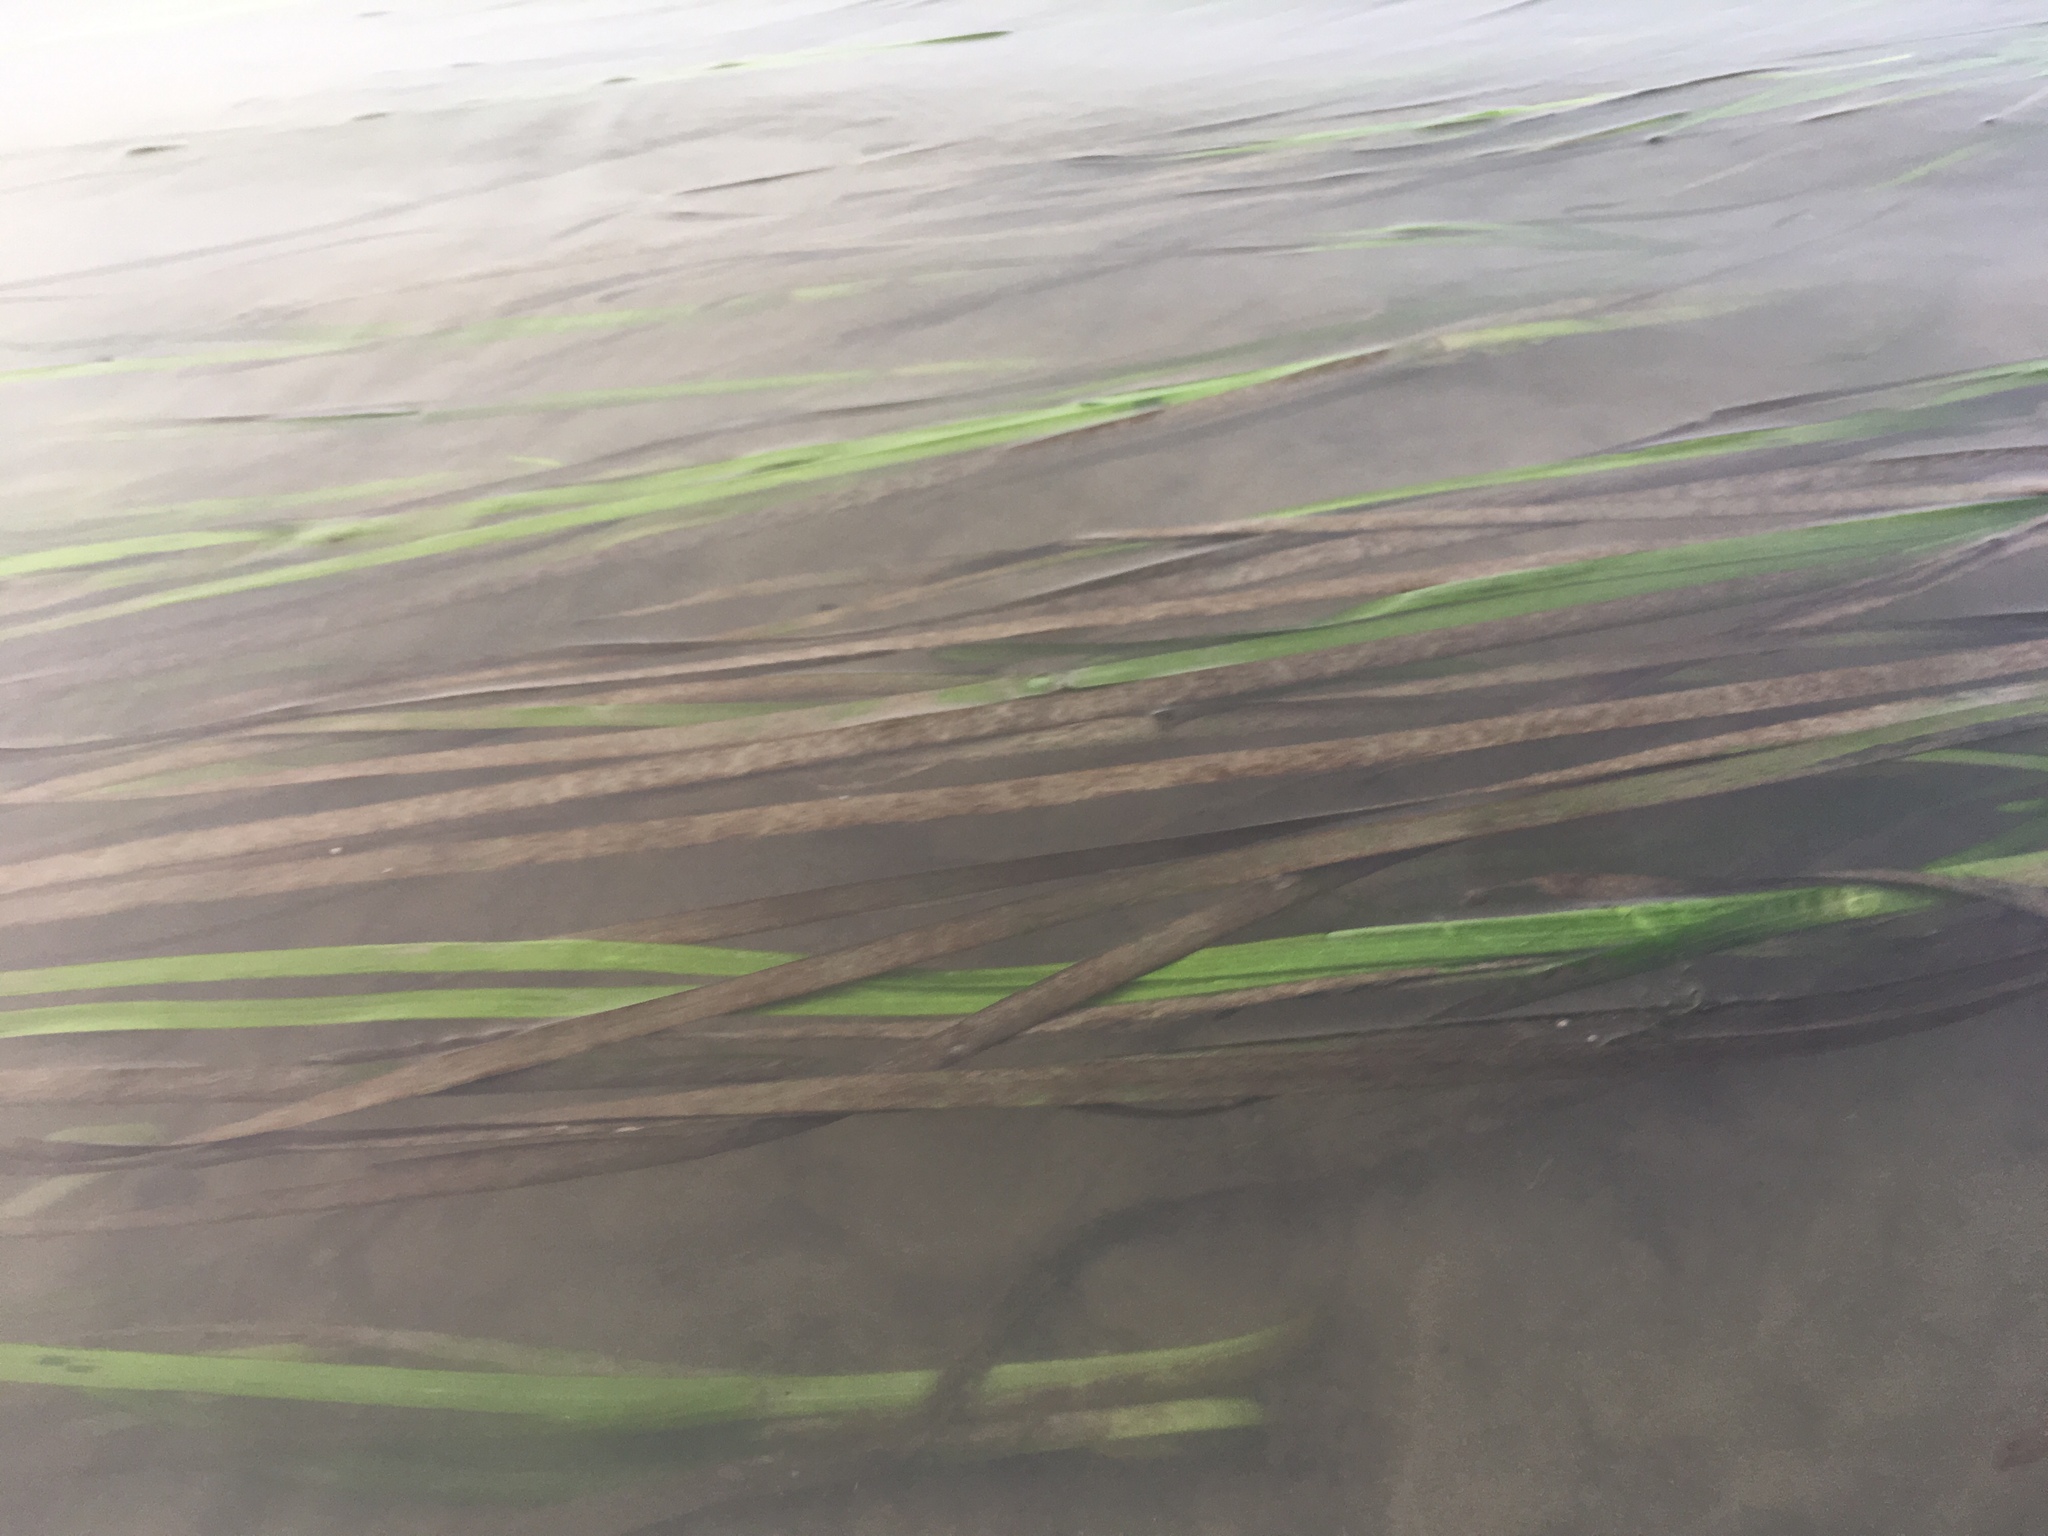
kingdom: Plantae
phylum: Tracheophyta
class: Liliopsida
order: Alismatales
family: Zosteraceae
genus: Zostera
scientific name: Zostera marina
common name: Eelgrass
